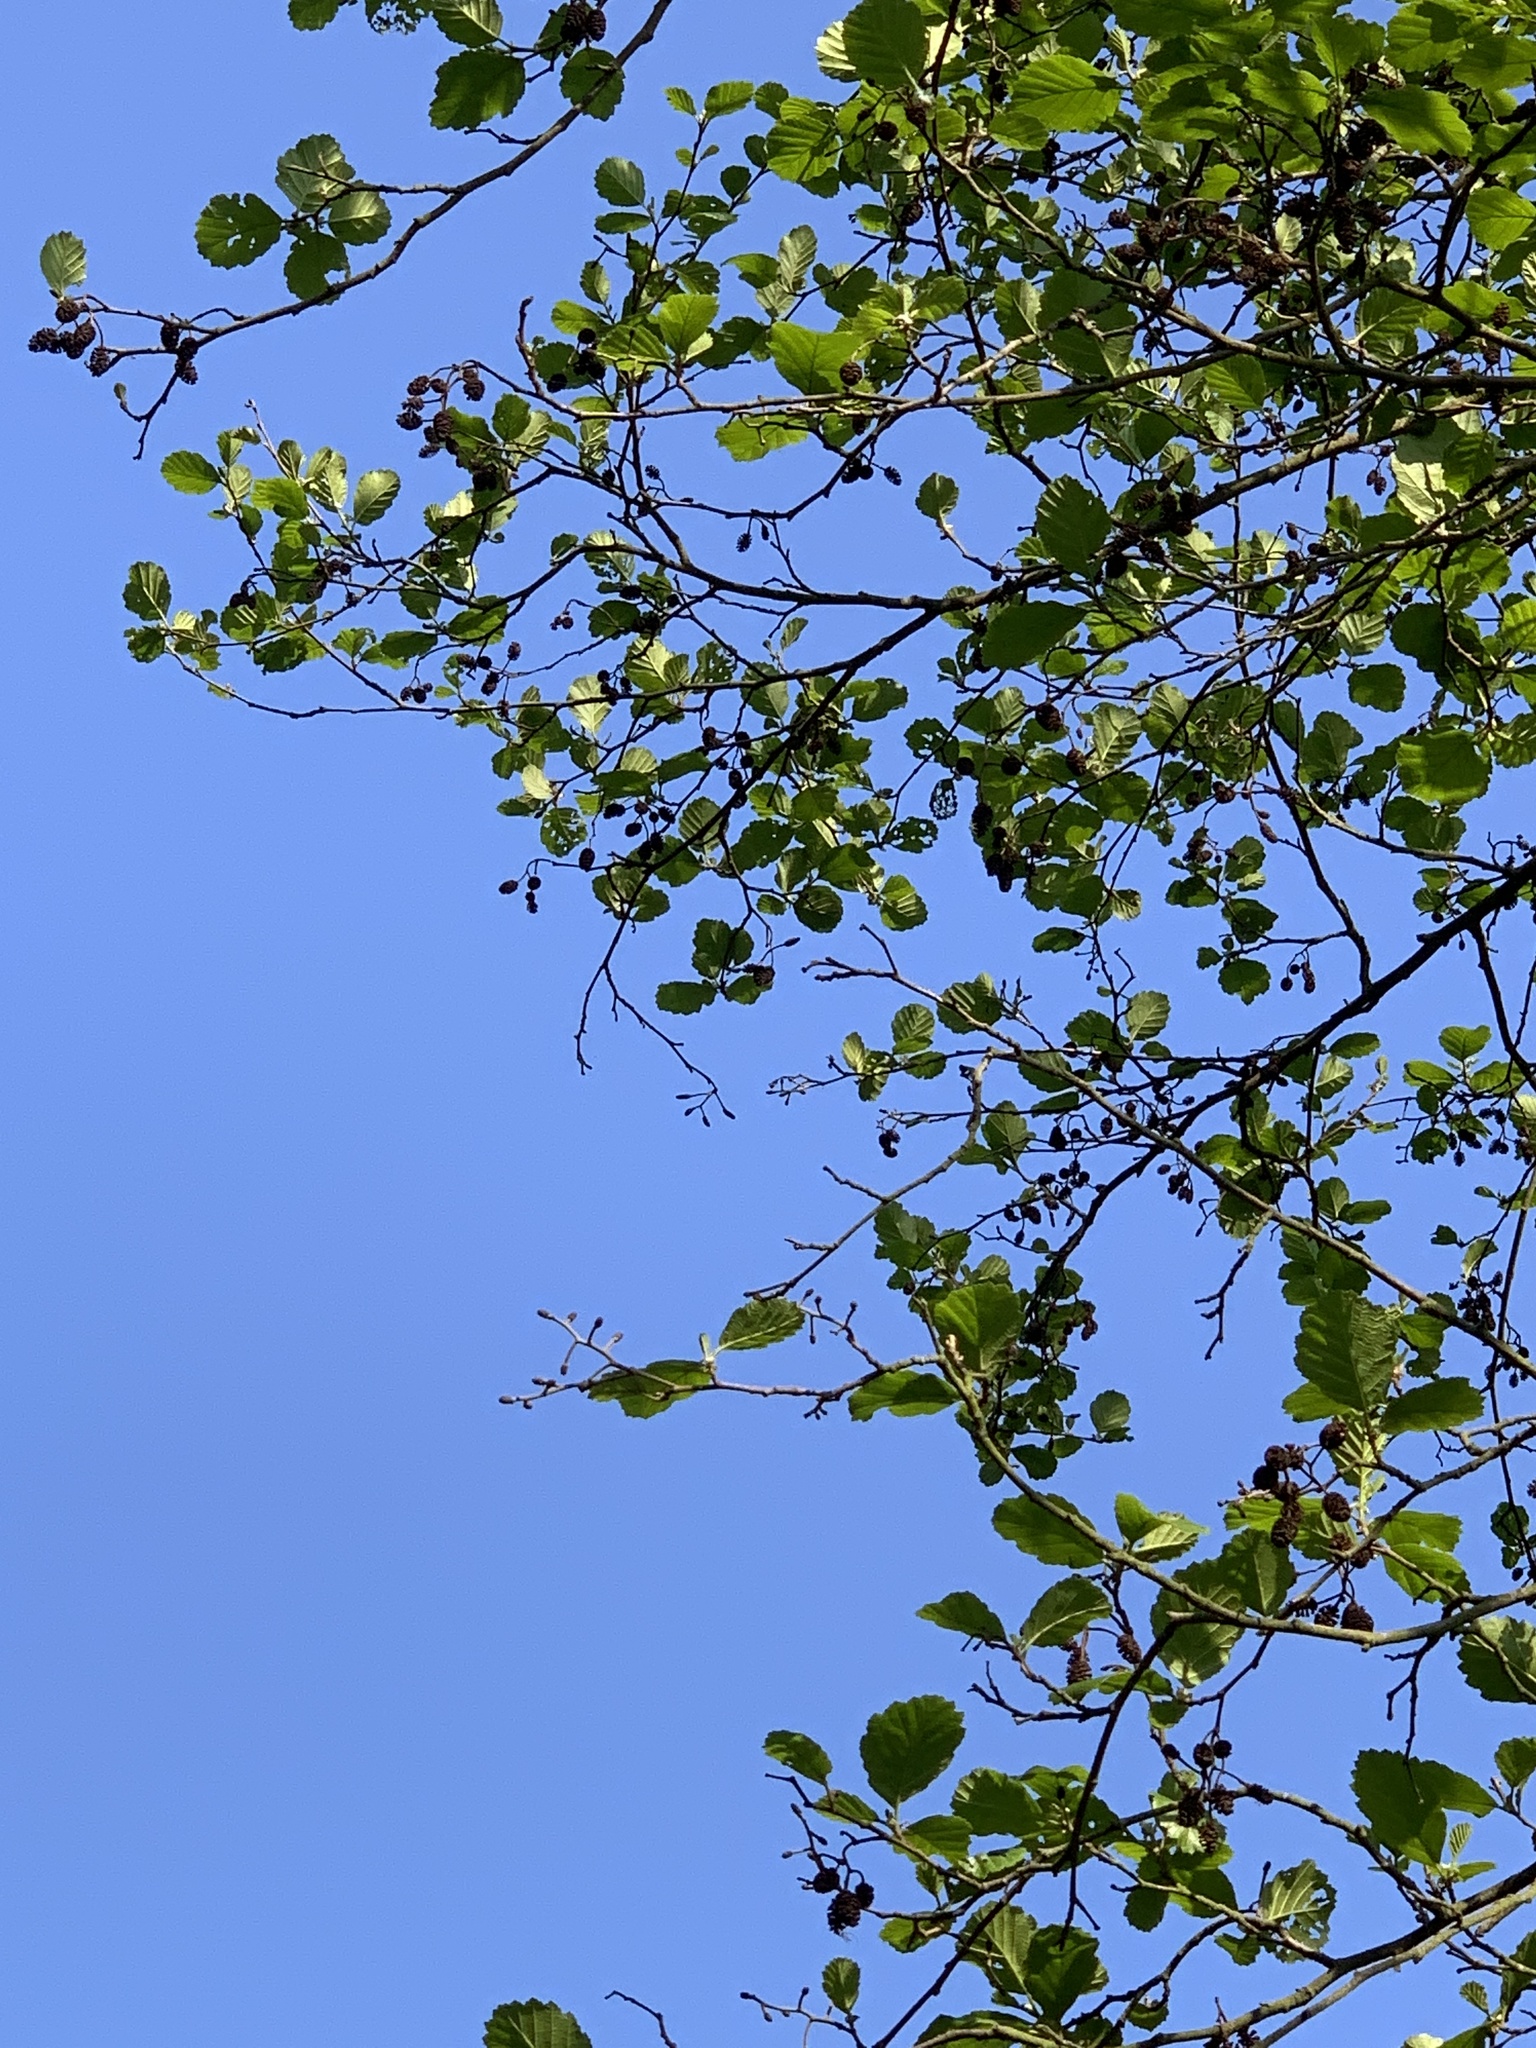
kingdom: Plantae
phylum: Tracheophyta
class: Magnoliopsida
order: Fagales
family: Betulaceae
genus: Alnus
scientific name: Alnus glutinosa
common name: Black alder
